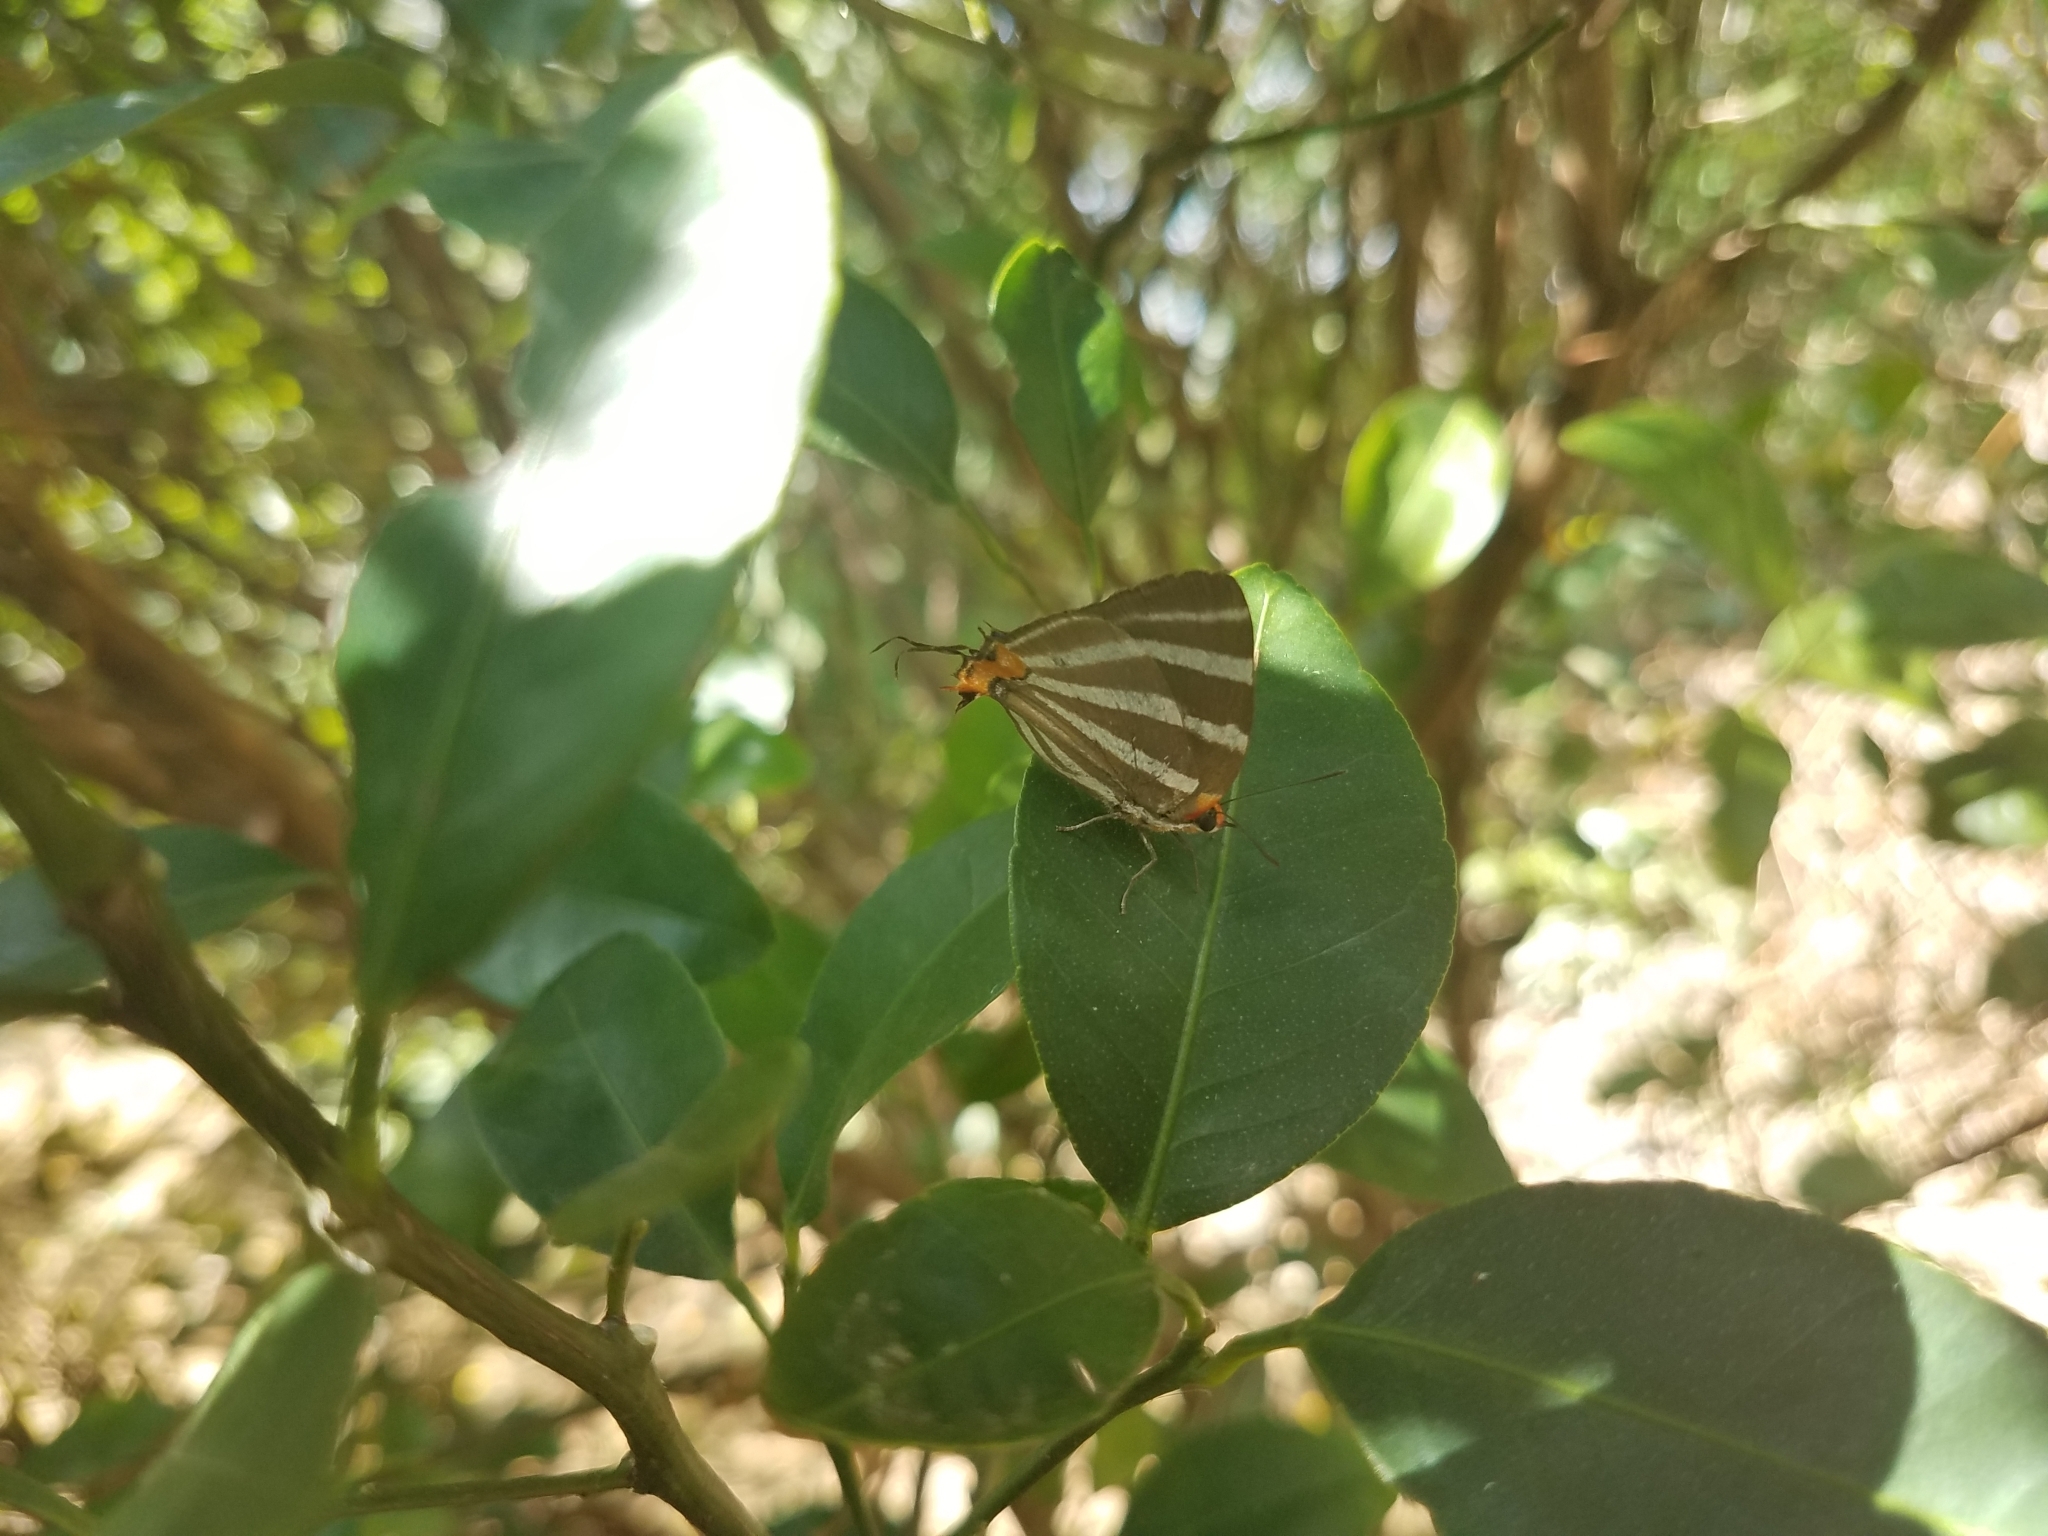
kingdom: Animalia
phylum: Arthropoda
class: Insecta
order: Lepidoptera
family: Lycaenidae
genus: Thecla
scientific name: Thecla bathildis
